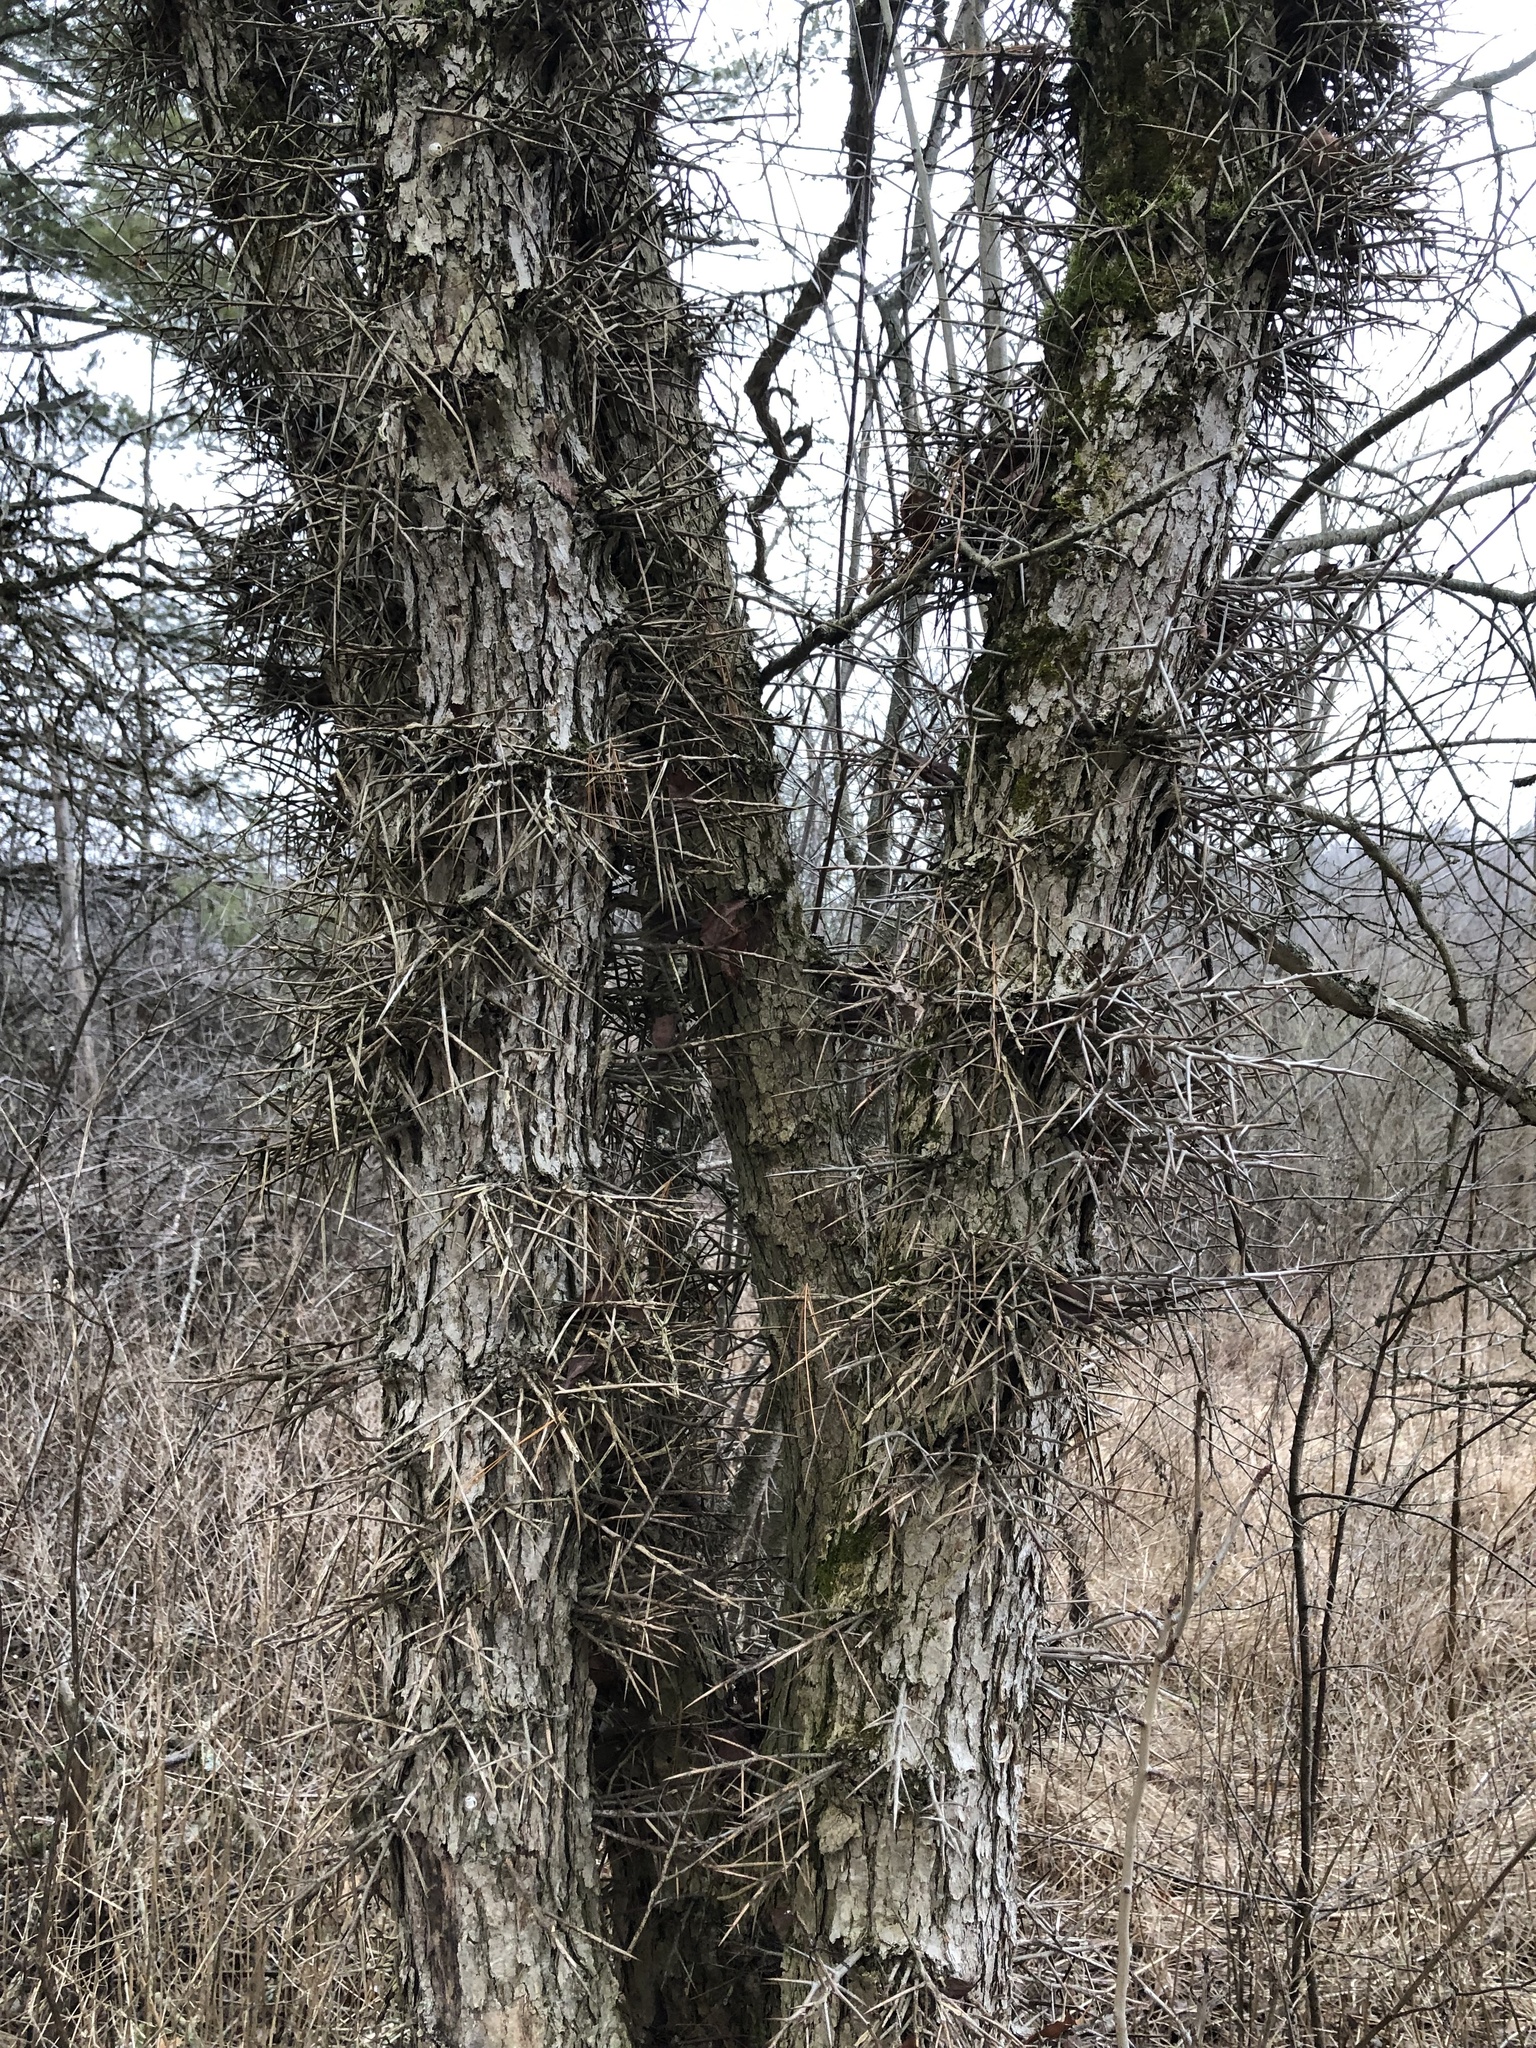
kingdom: Plantae
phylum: Tracheophyta
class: Magnoliopsida
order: Fabales
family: Fabaceae
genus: Gleditsia
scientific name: Gleditsia triacanthos
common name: Common honeylocust
